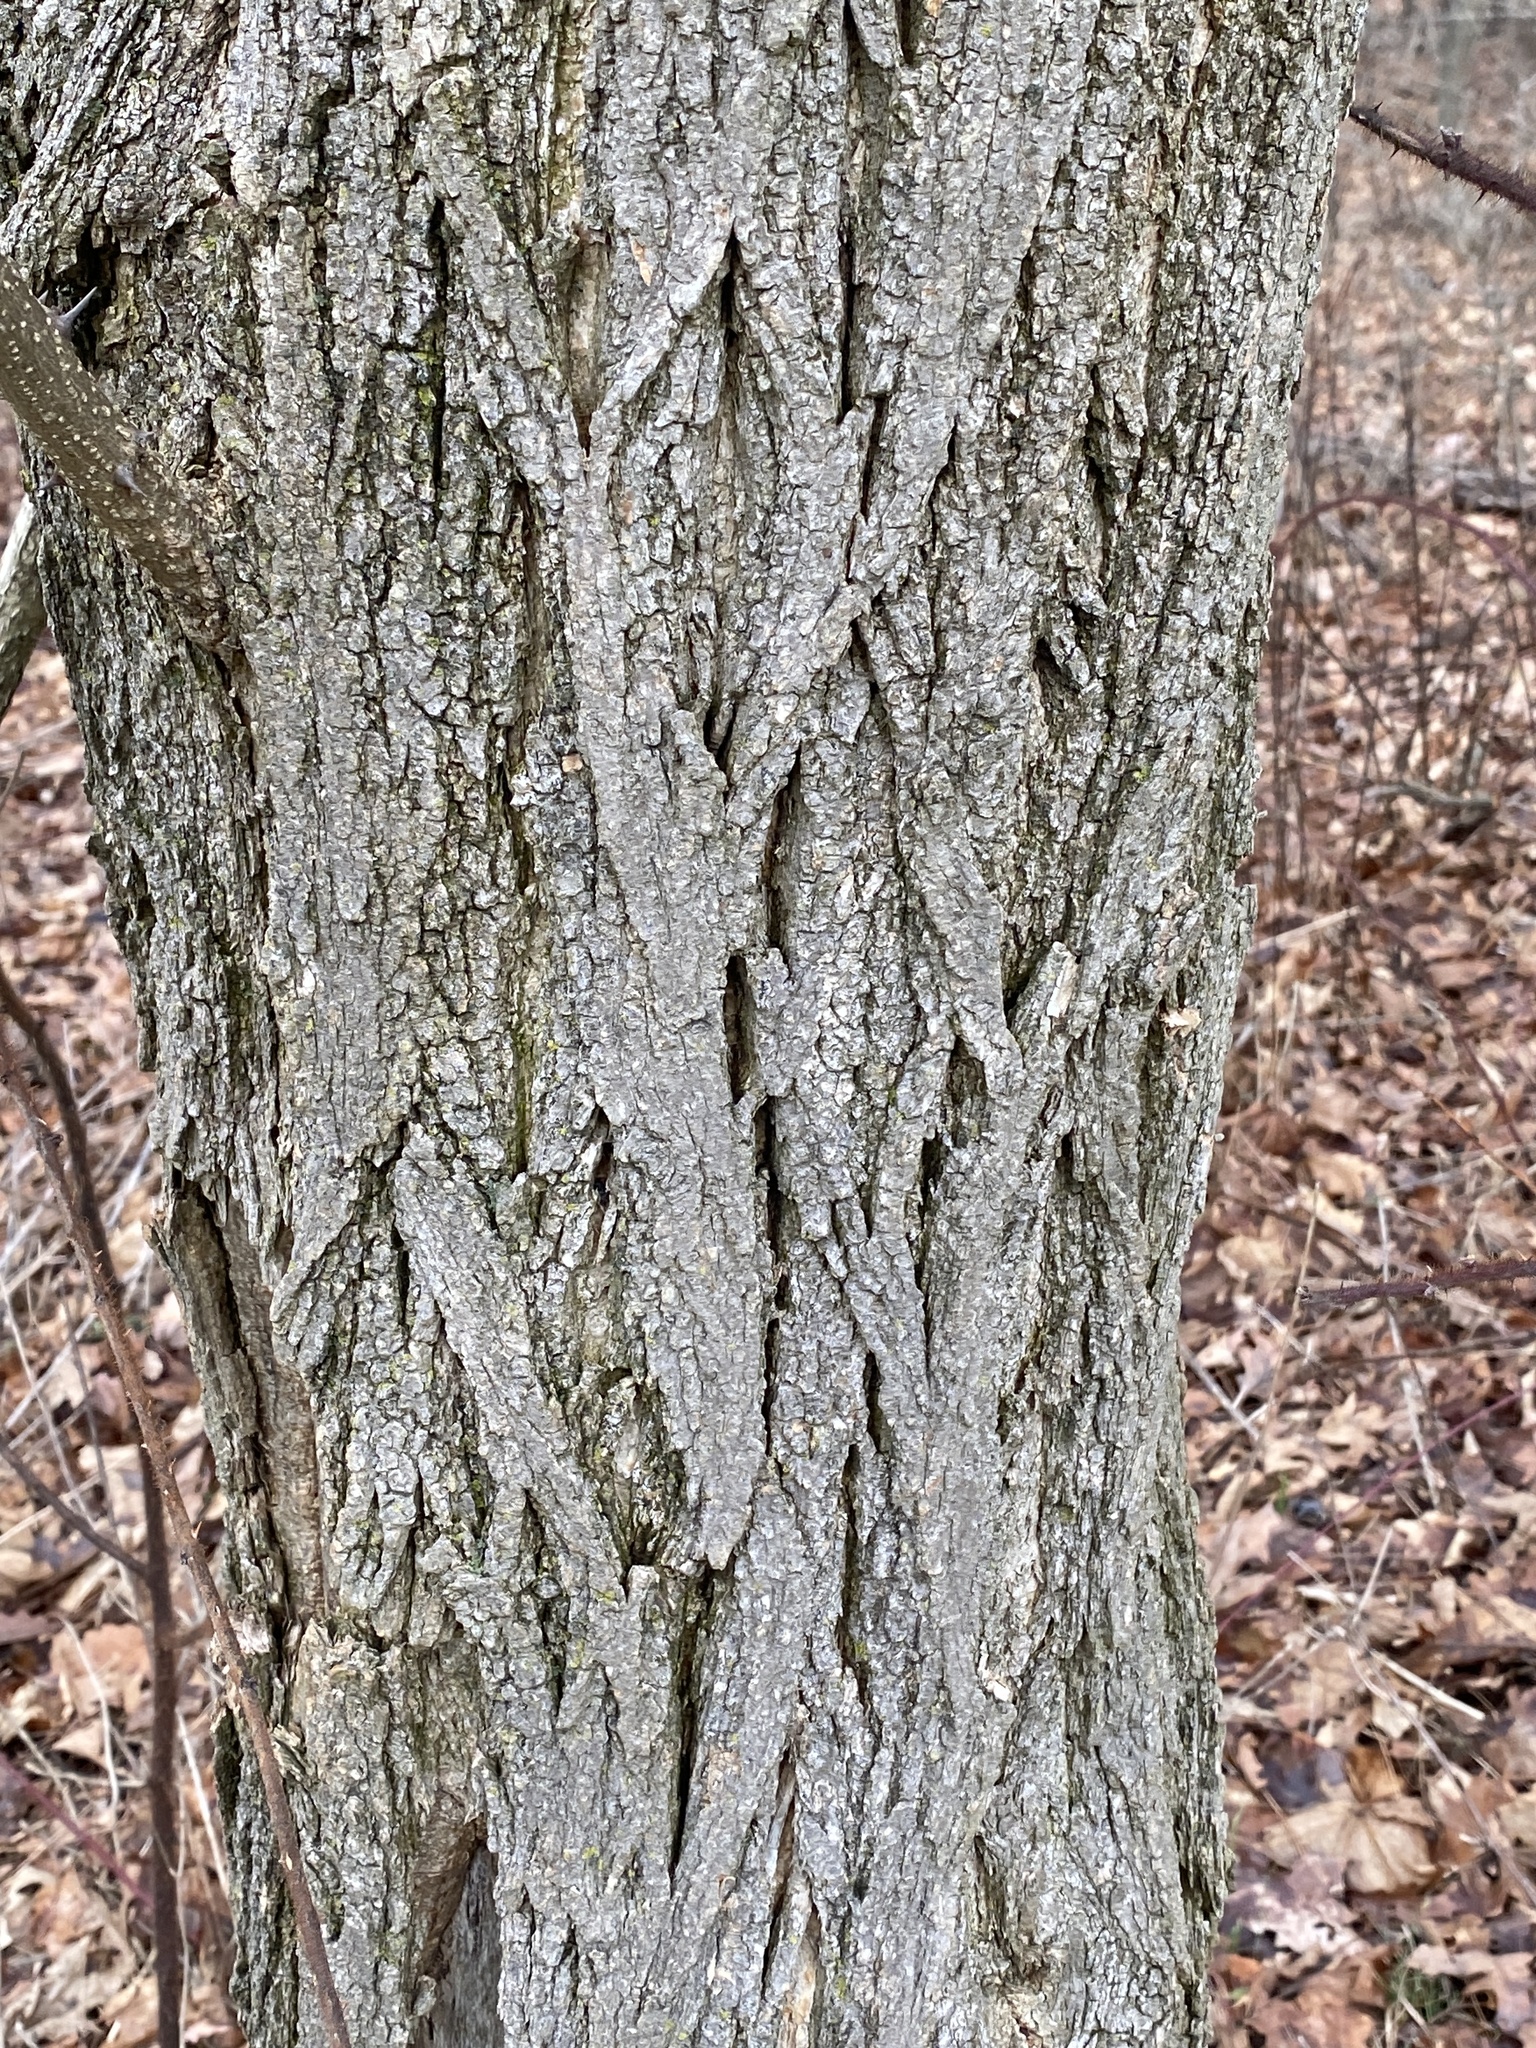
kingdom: Plantae
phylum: Tracheophyta
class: Magnoliopsida
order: Fabales
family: Fabaceae
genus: Robinia
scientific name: Robinia pseudoacacia
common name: Black locust
